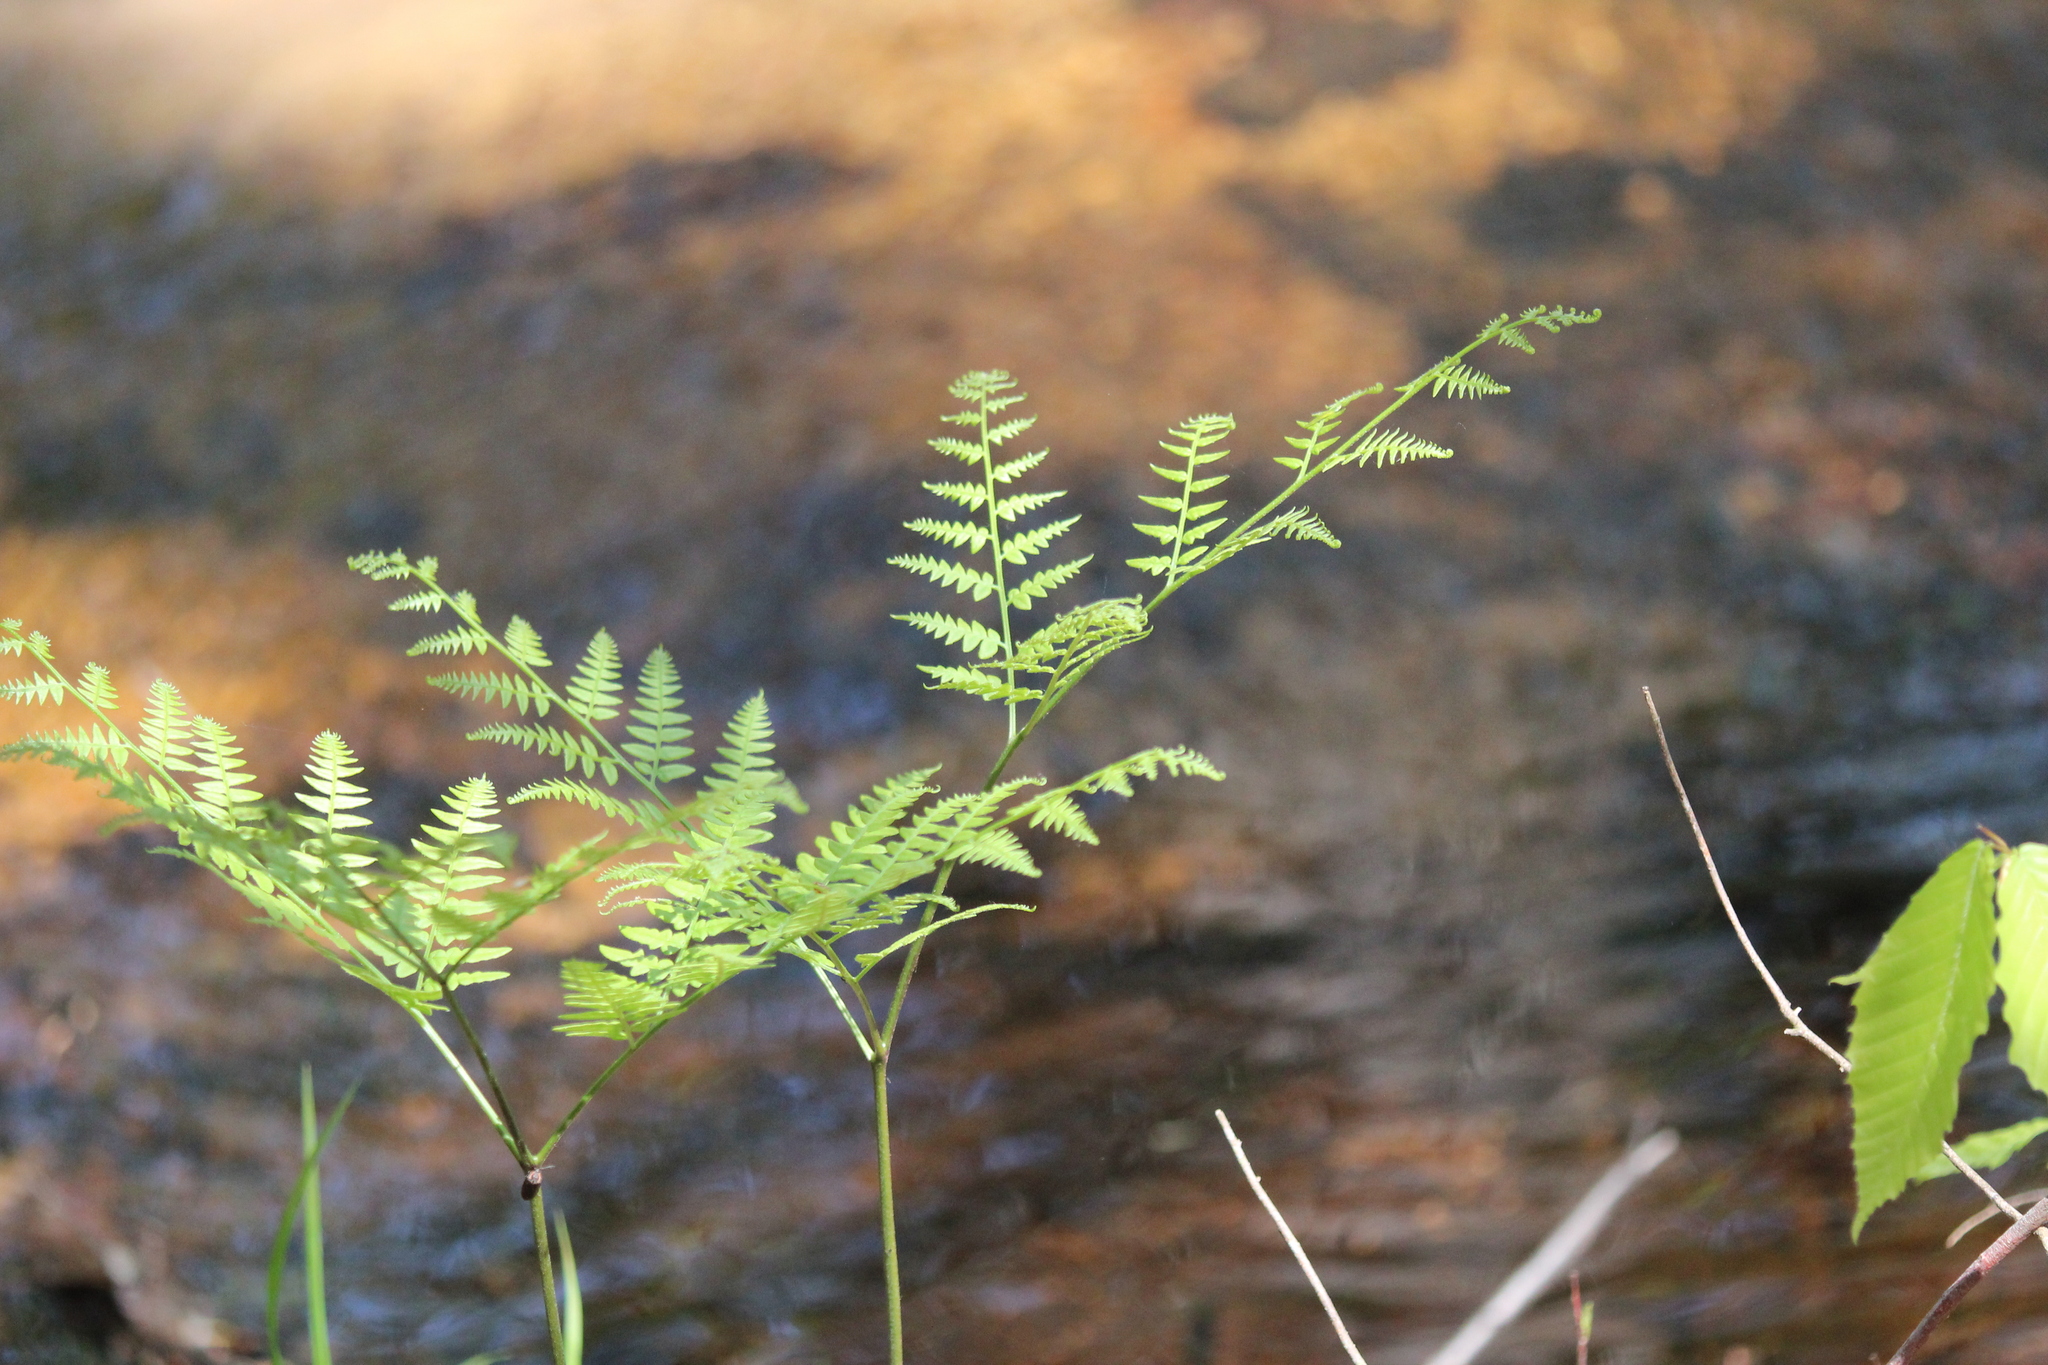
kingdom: Plantae
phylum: Tracheophyta
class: Polypodiopsida
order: Polypodiales
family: Dennstaedtiaceae
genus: Pteridium
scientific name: Pteridium aquilinum
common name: Bracken
